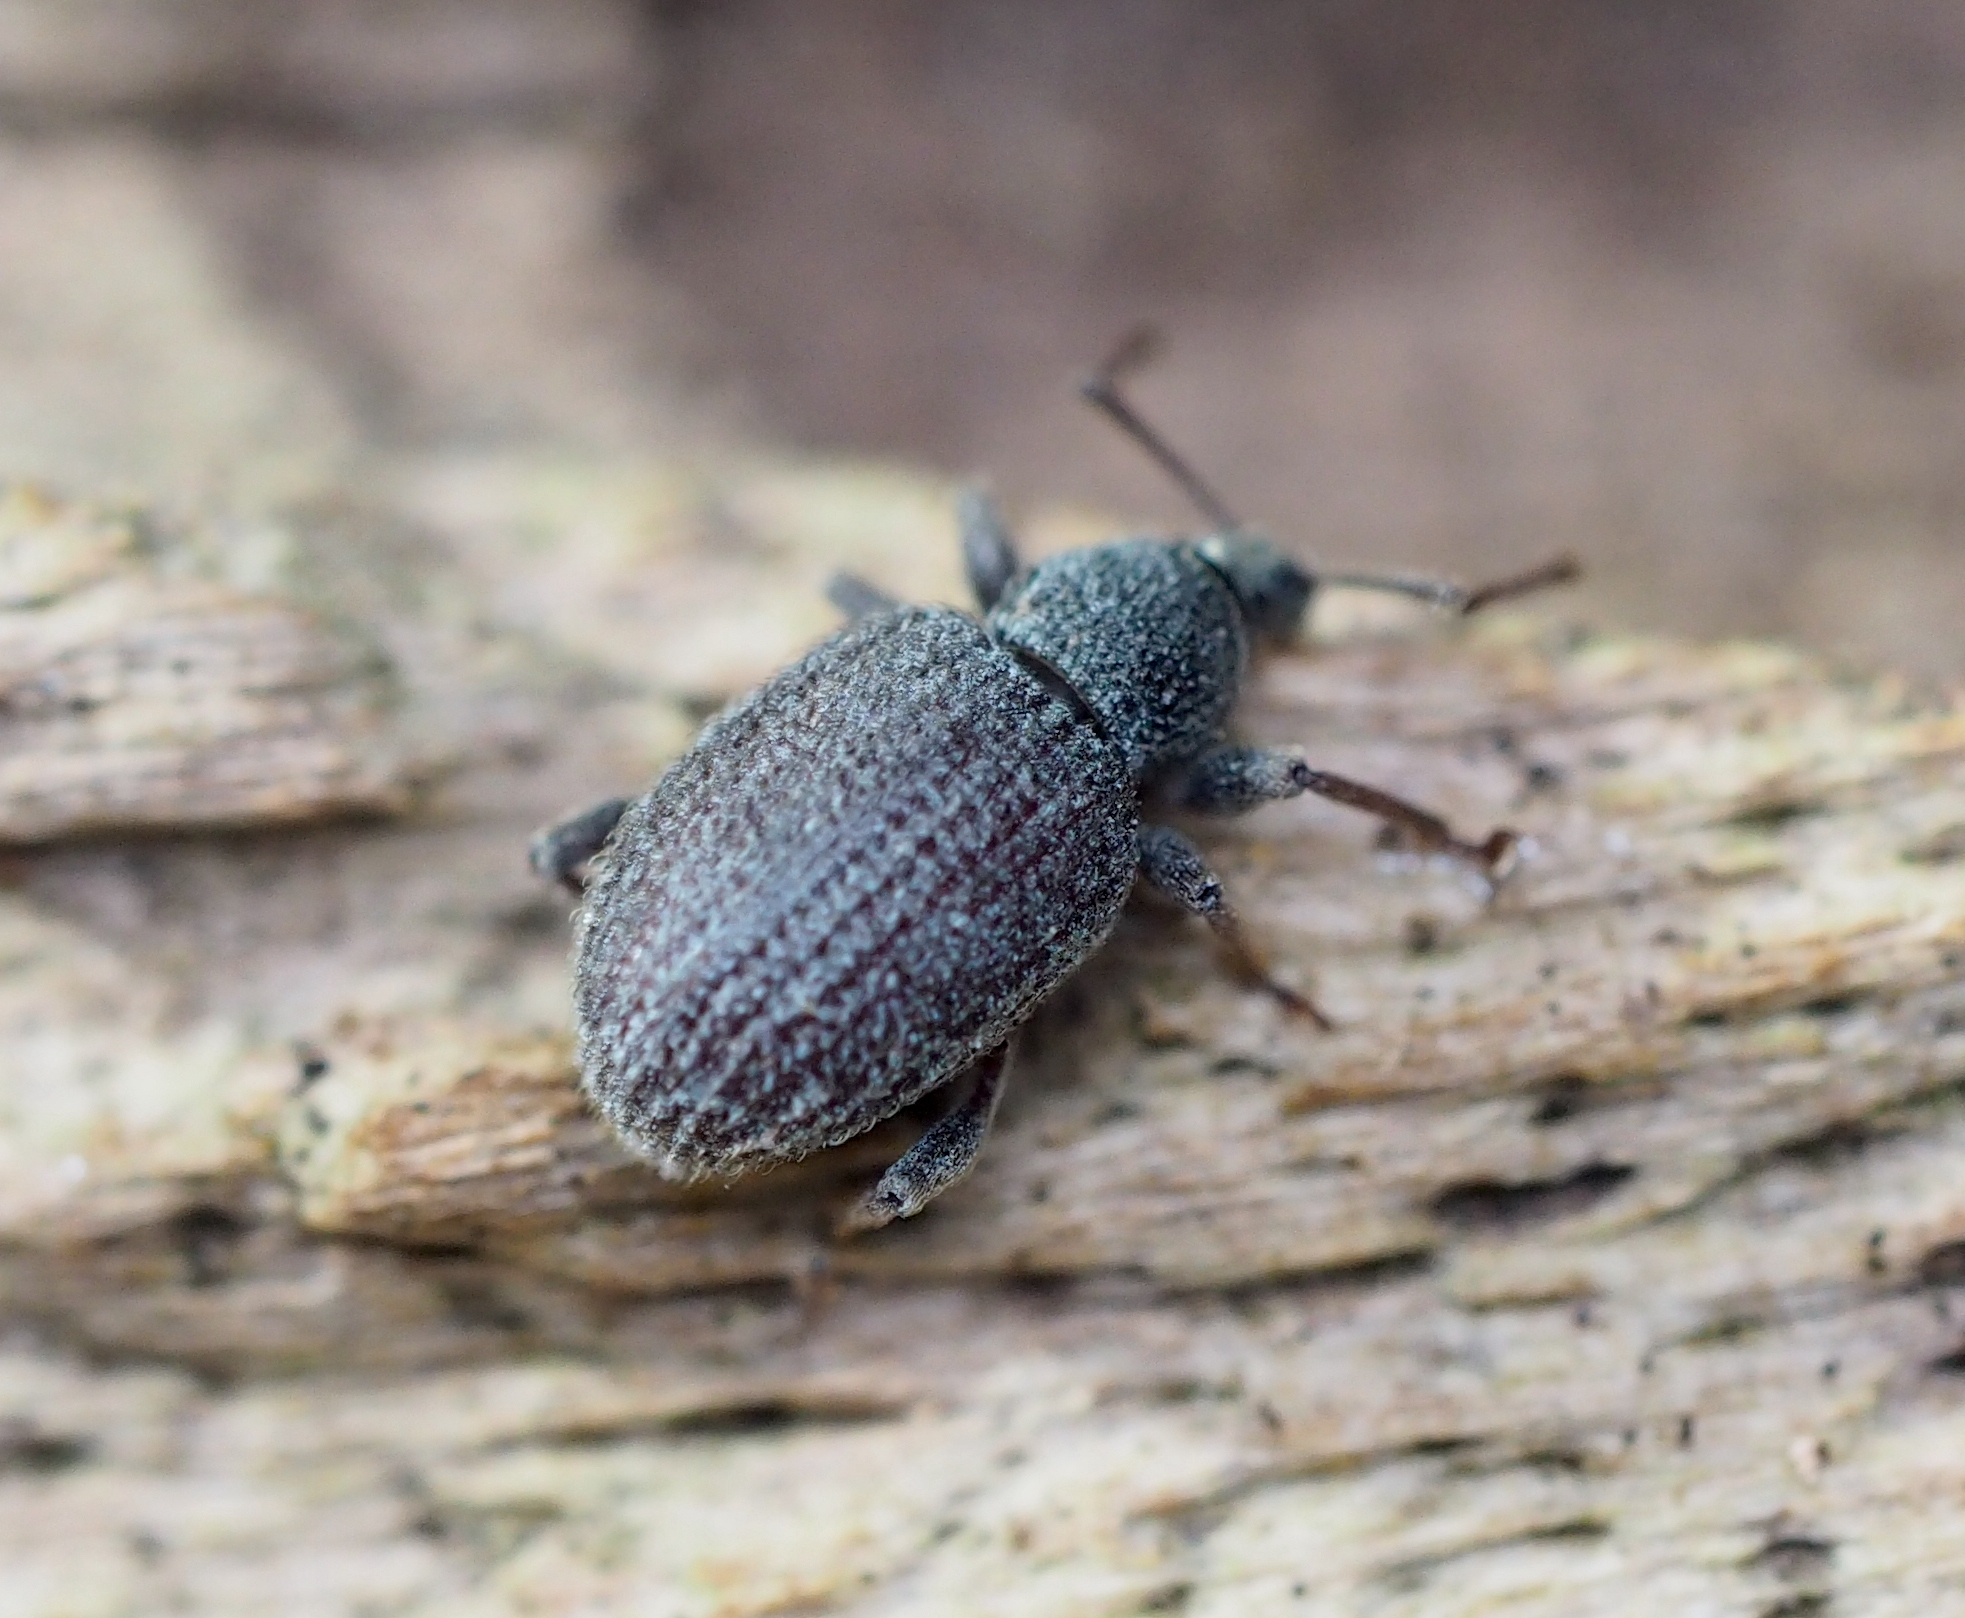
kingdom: Animalia
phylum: Arthropoda
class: Insecta
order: Coleoptera
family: Curculionidae
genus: Otiorhynchus
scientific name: Otiorhynchus rugosostriatus
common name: Weevil
